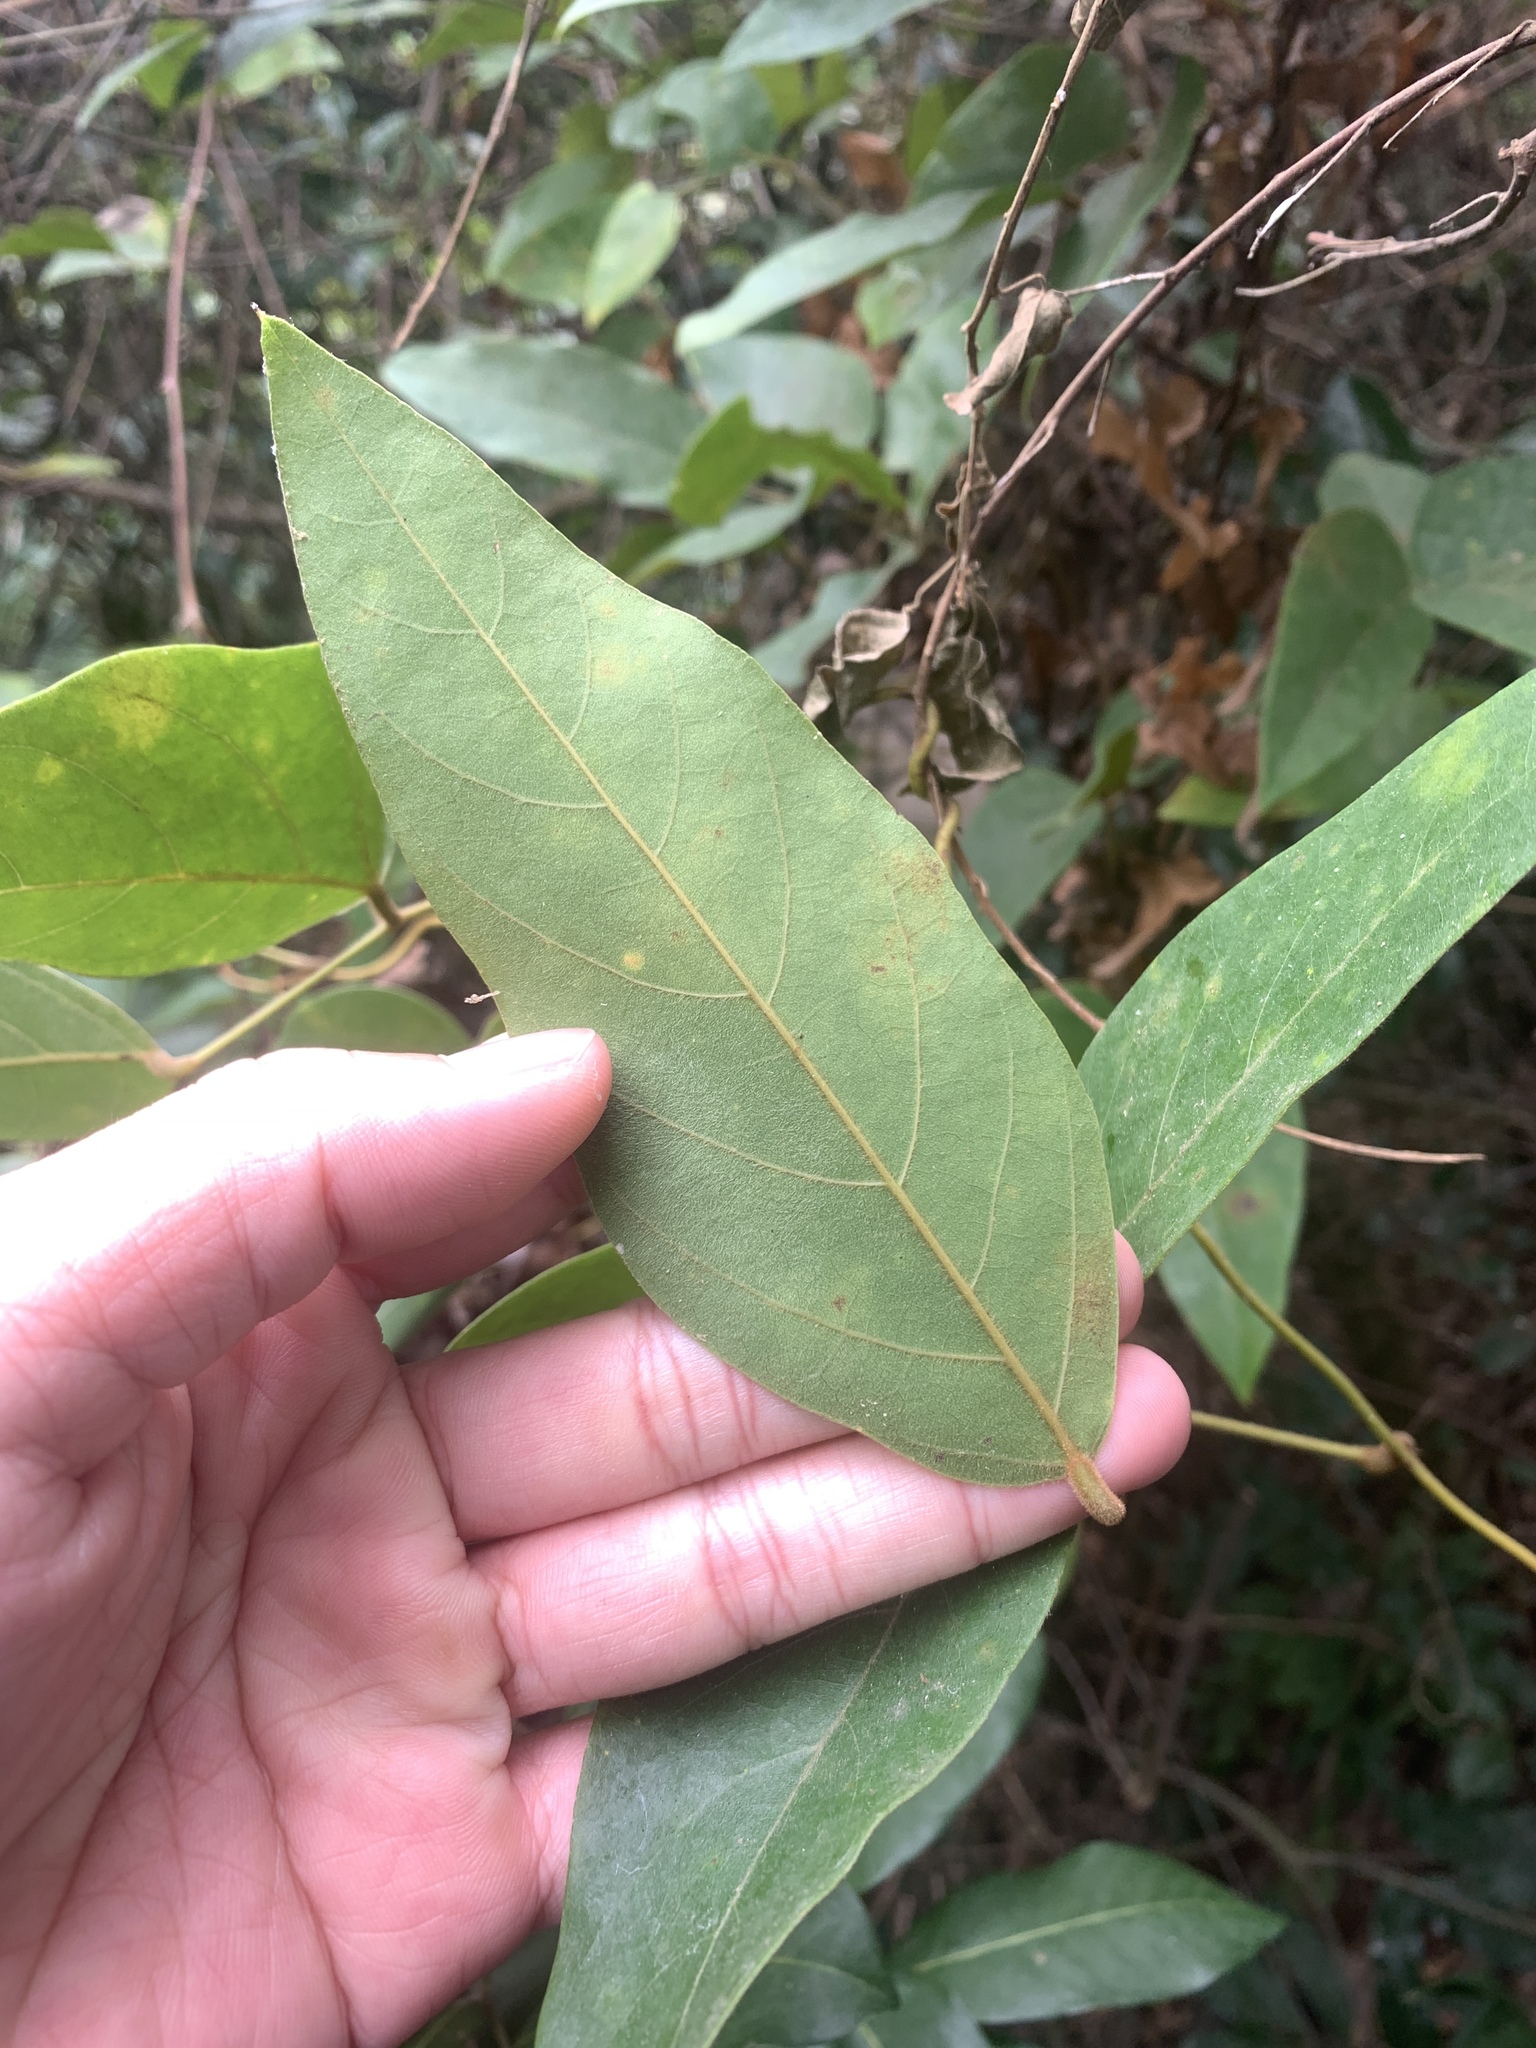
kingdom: Plantae
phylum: Tracheophyta
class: Magnoliopsida
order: Fabales
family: Fabaceae
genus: Mucuna
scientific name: Mucuna macrocarpa
